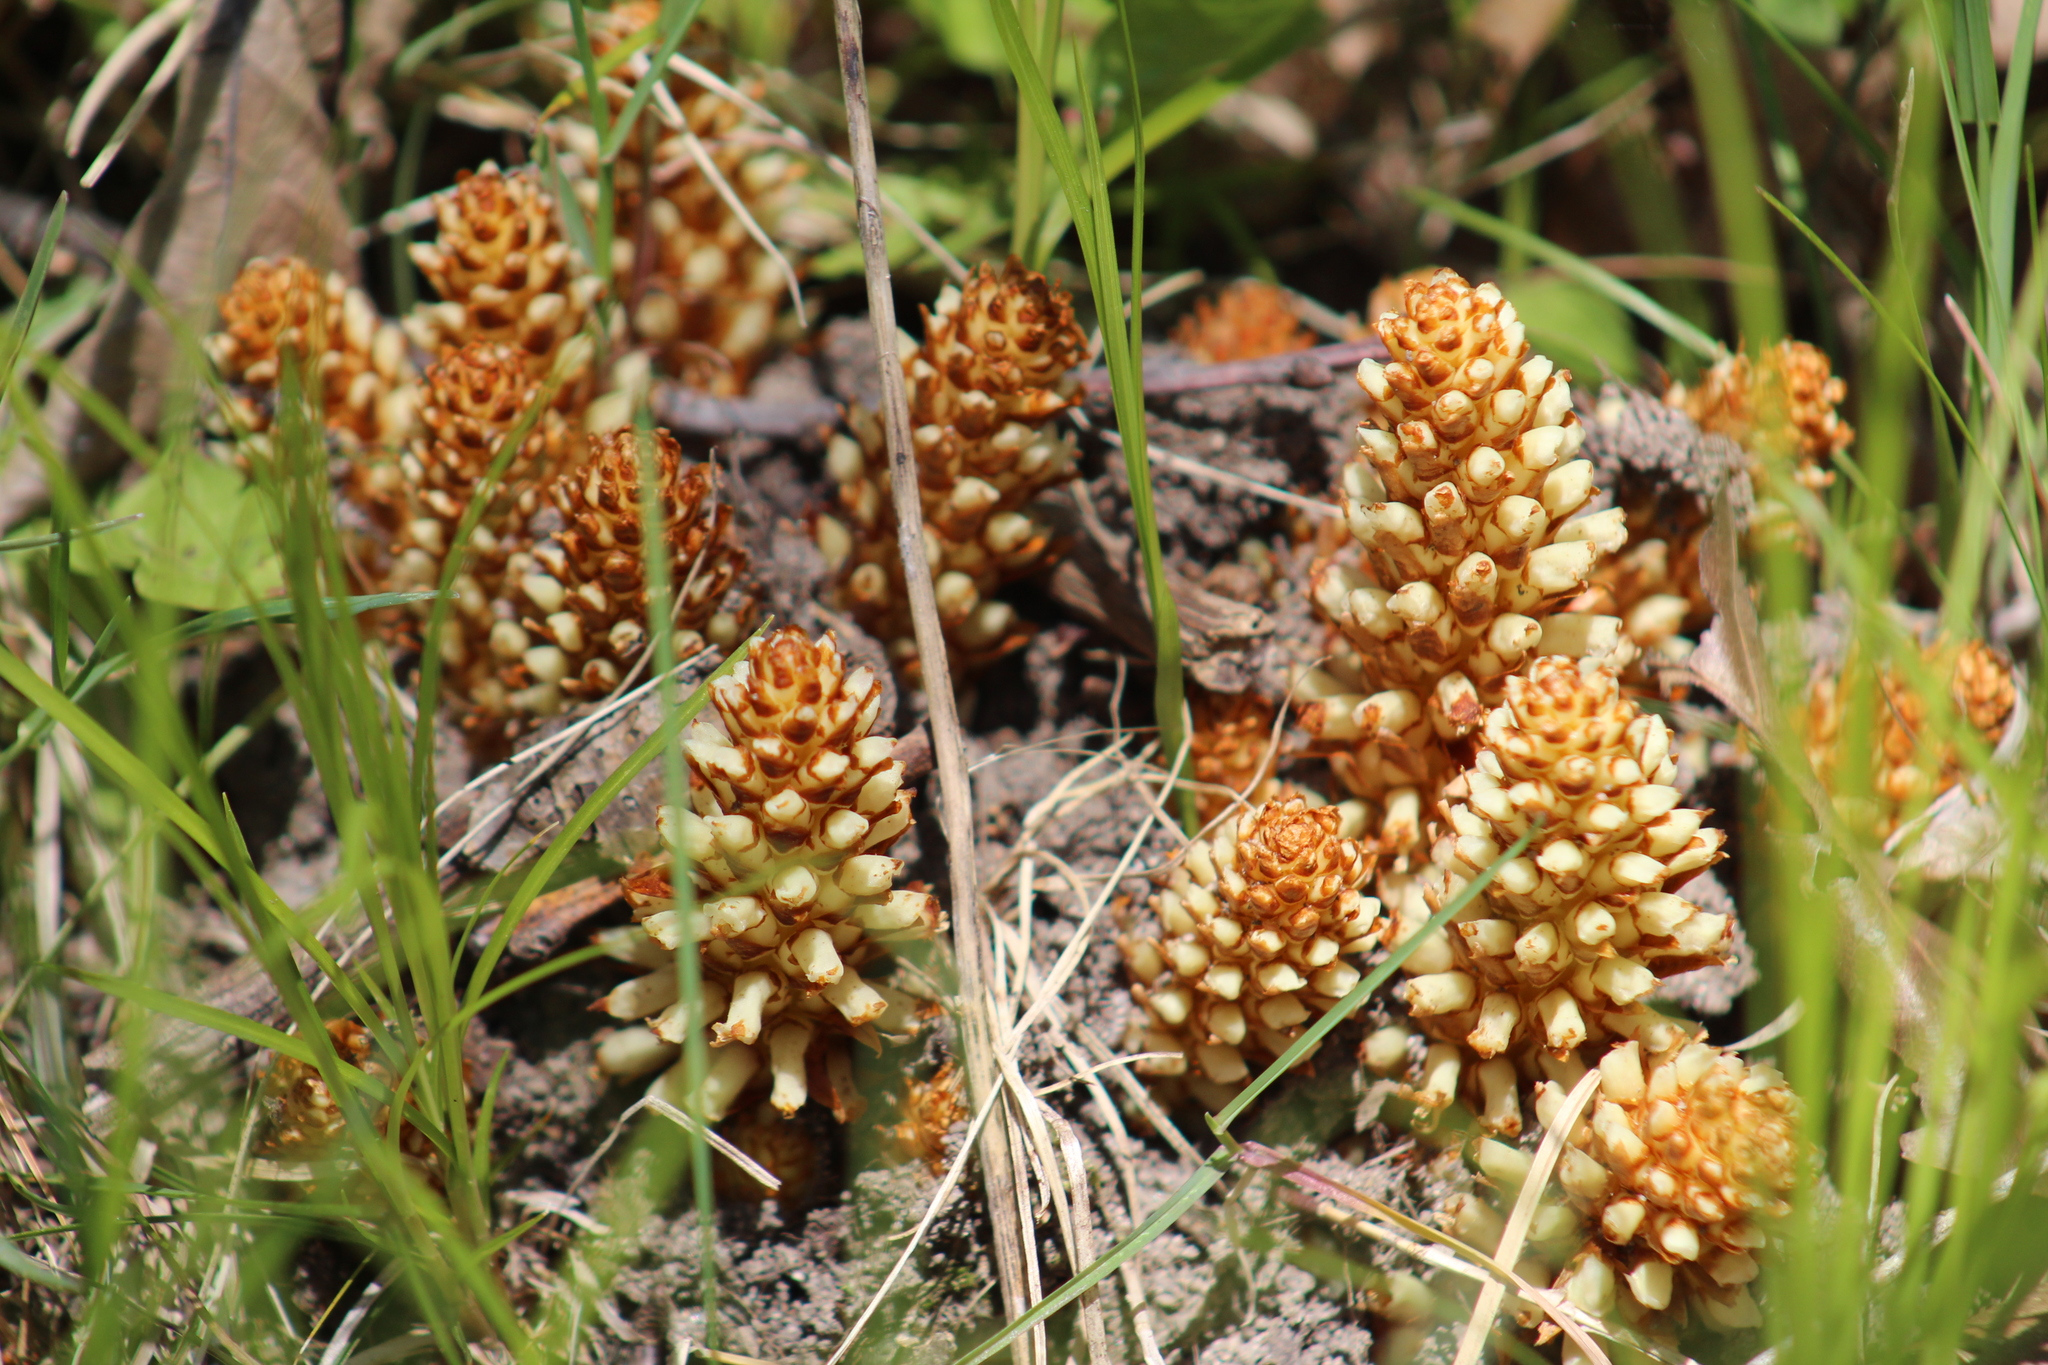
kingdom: Plantae
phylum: Tracheophyta
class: Magnoliopsida
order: Lamiales
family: Orobanchaceae
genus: Conopholis
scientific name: Conopholis americana
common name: American cancer-root
